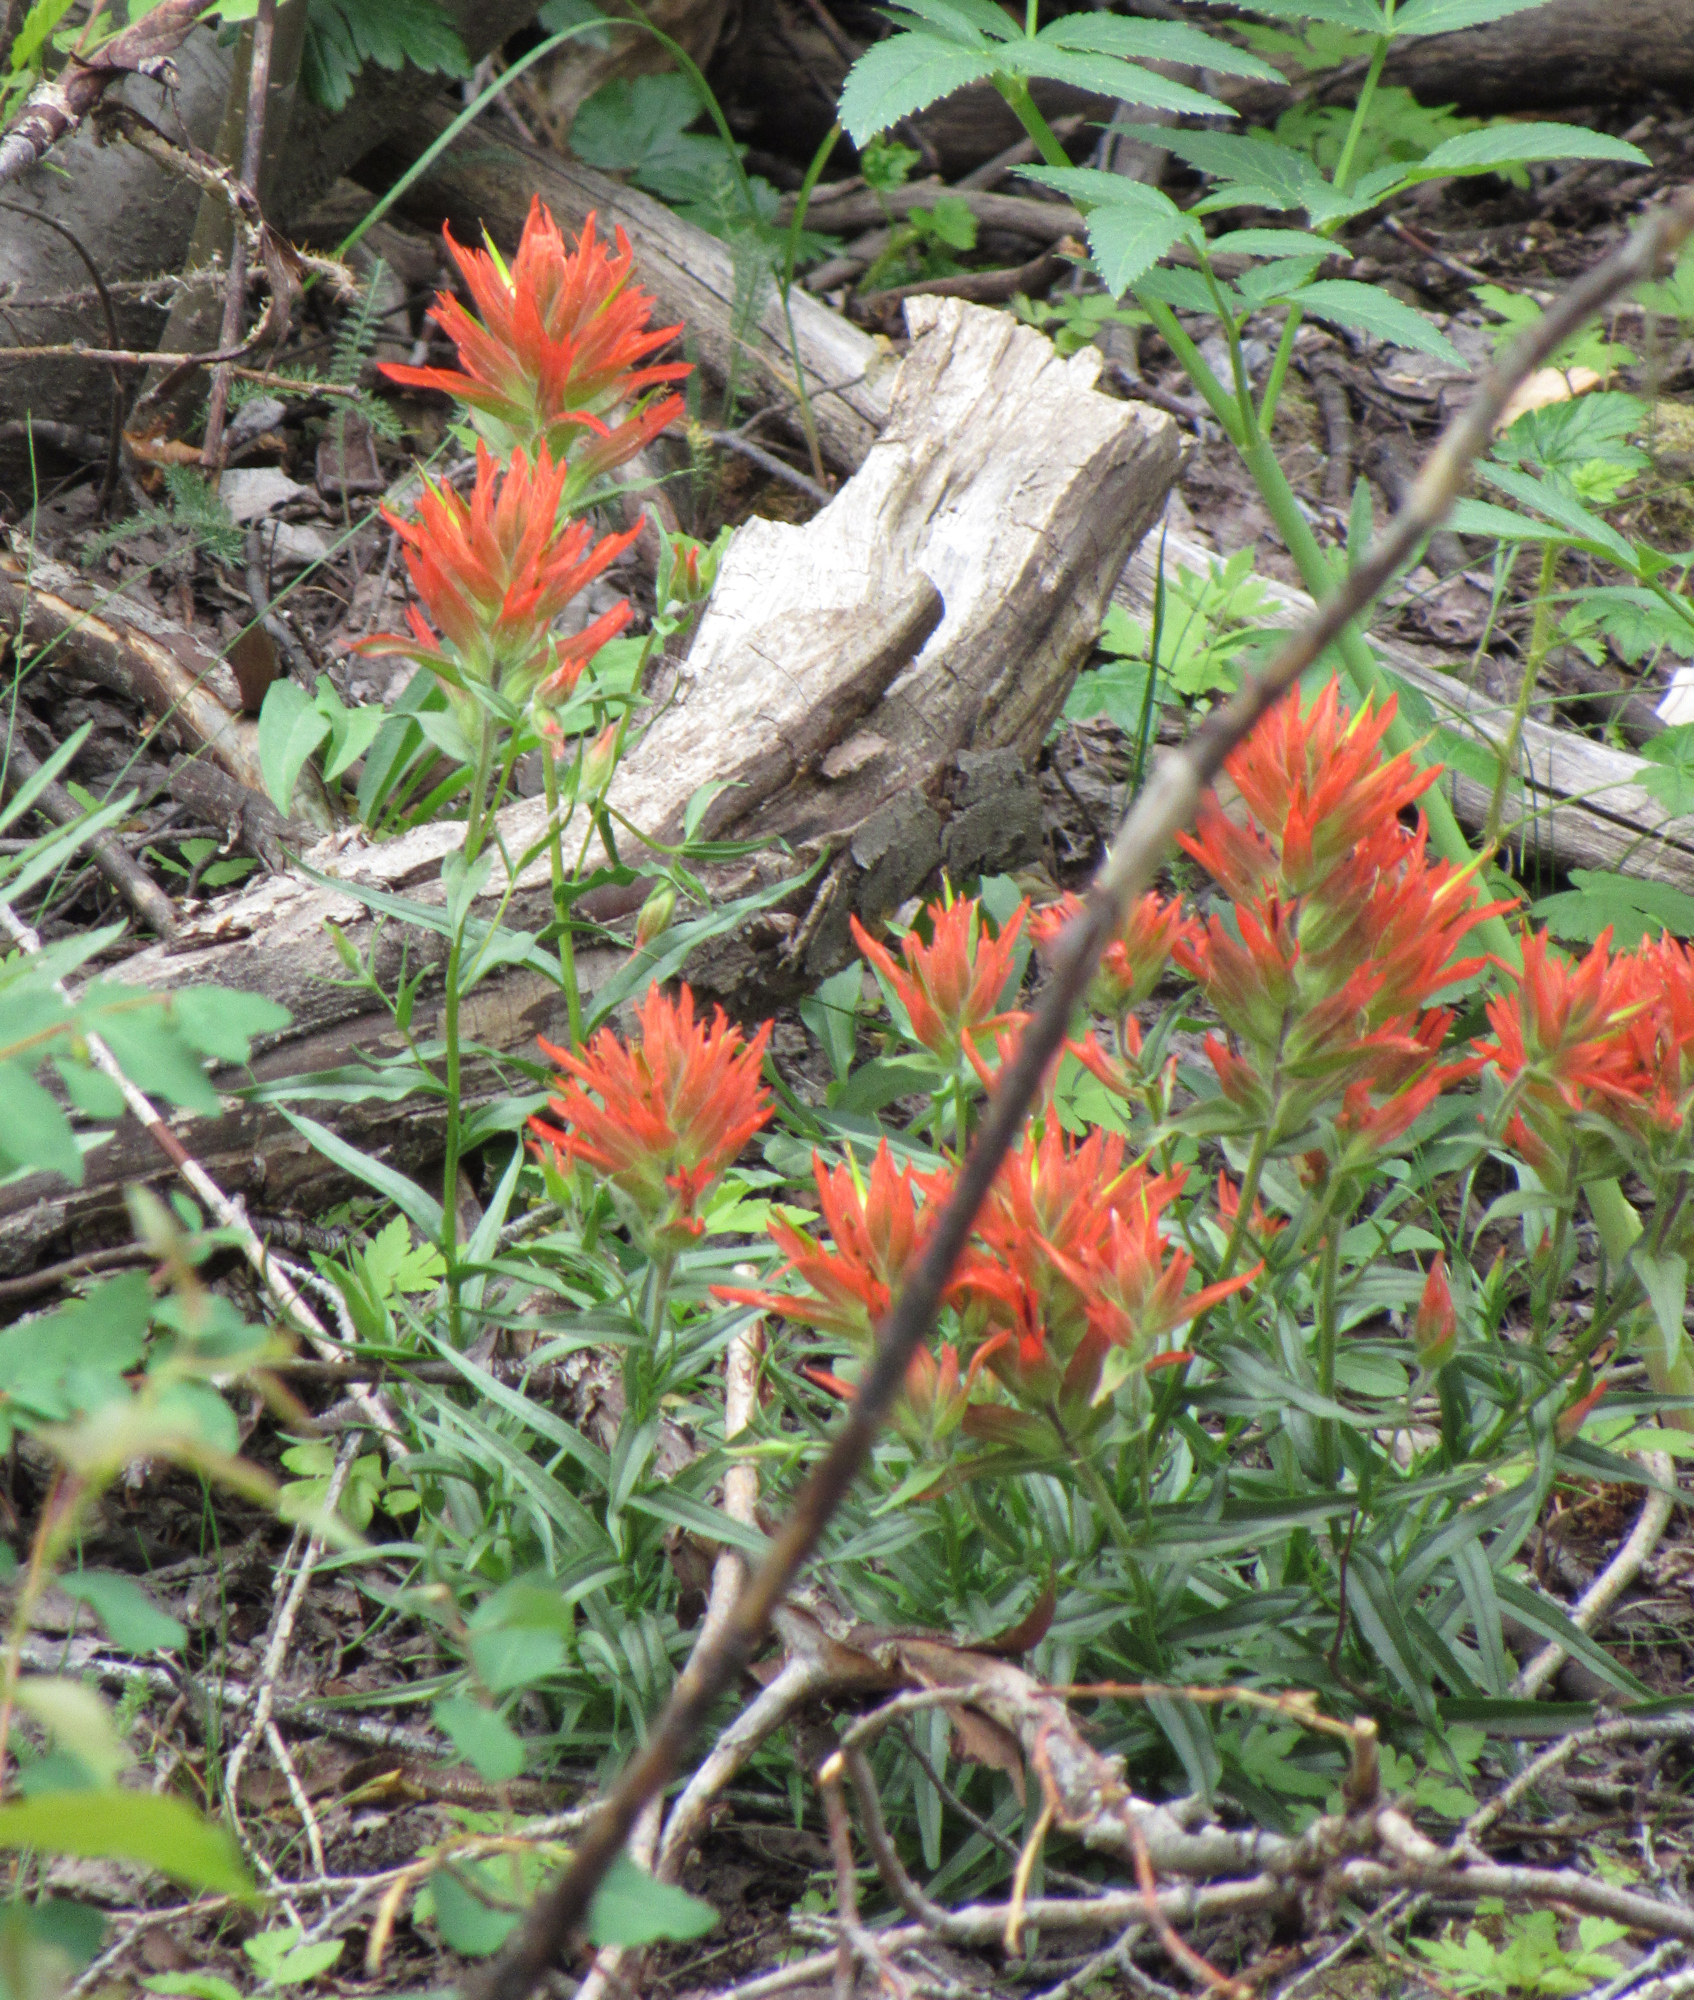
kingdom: Plantae
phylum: Tracheophyta
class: Magnoliopsida
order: Lamiales
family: Orobanchaceae
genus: Castilleja
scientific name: Castilleja miniata
